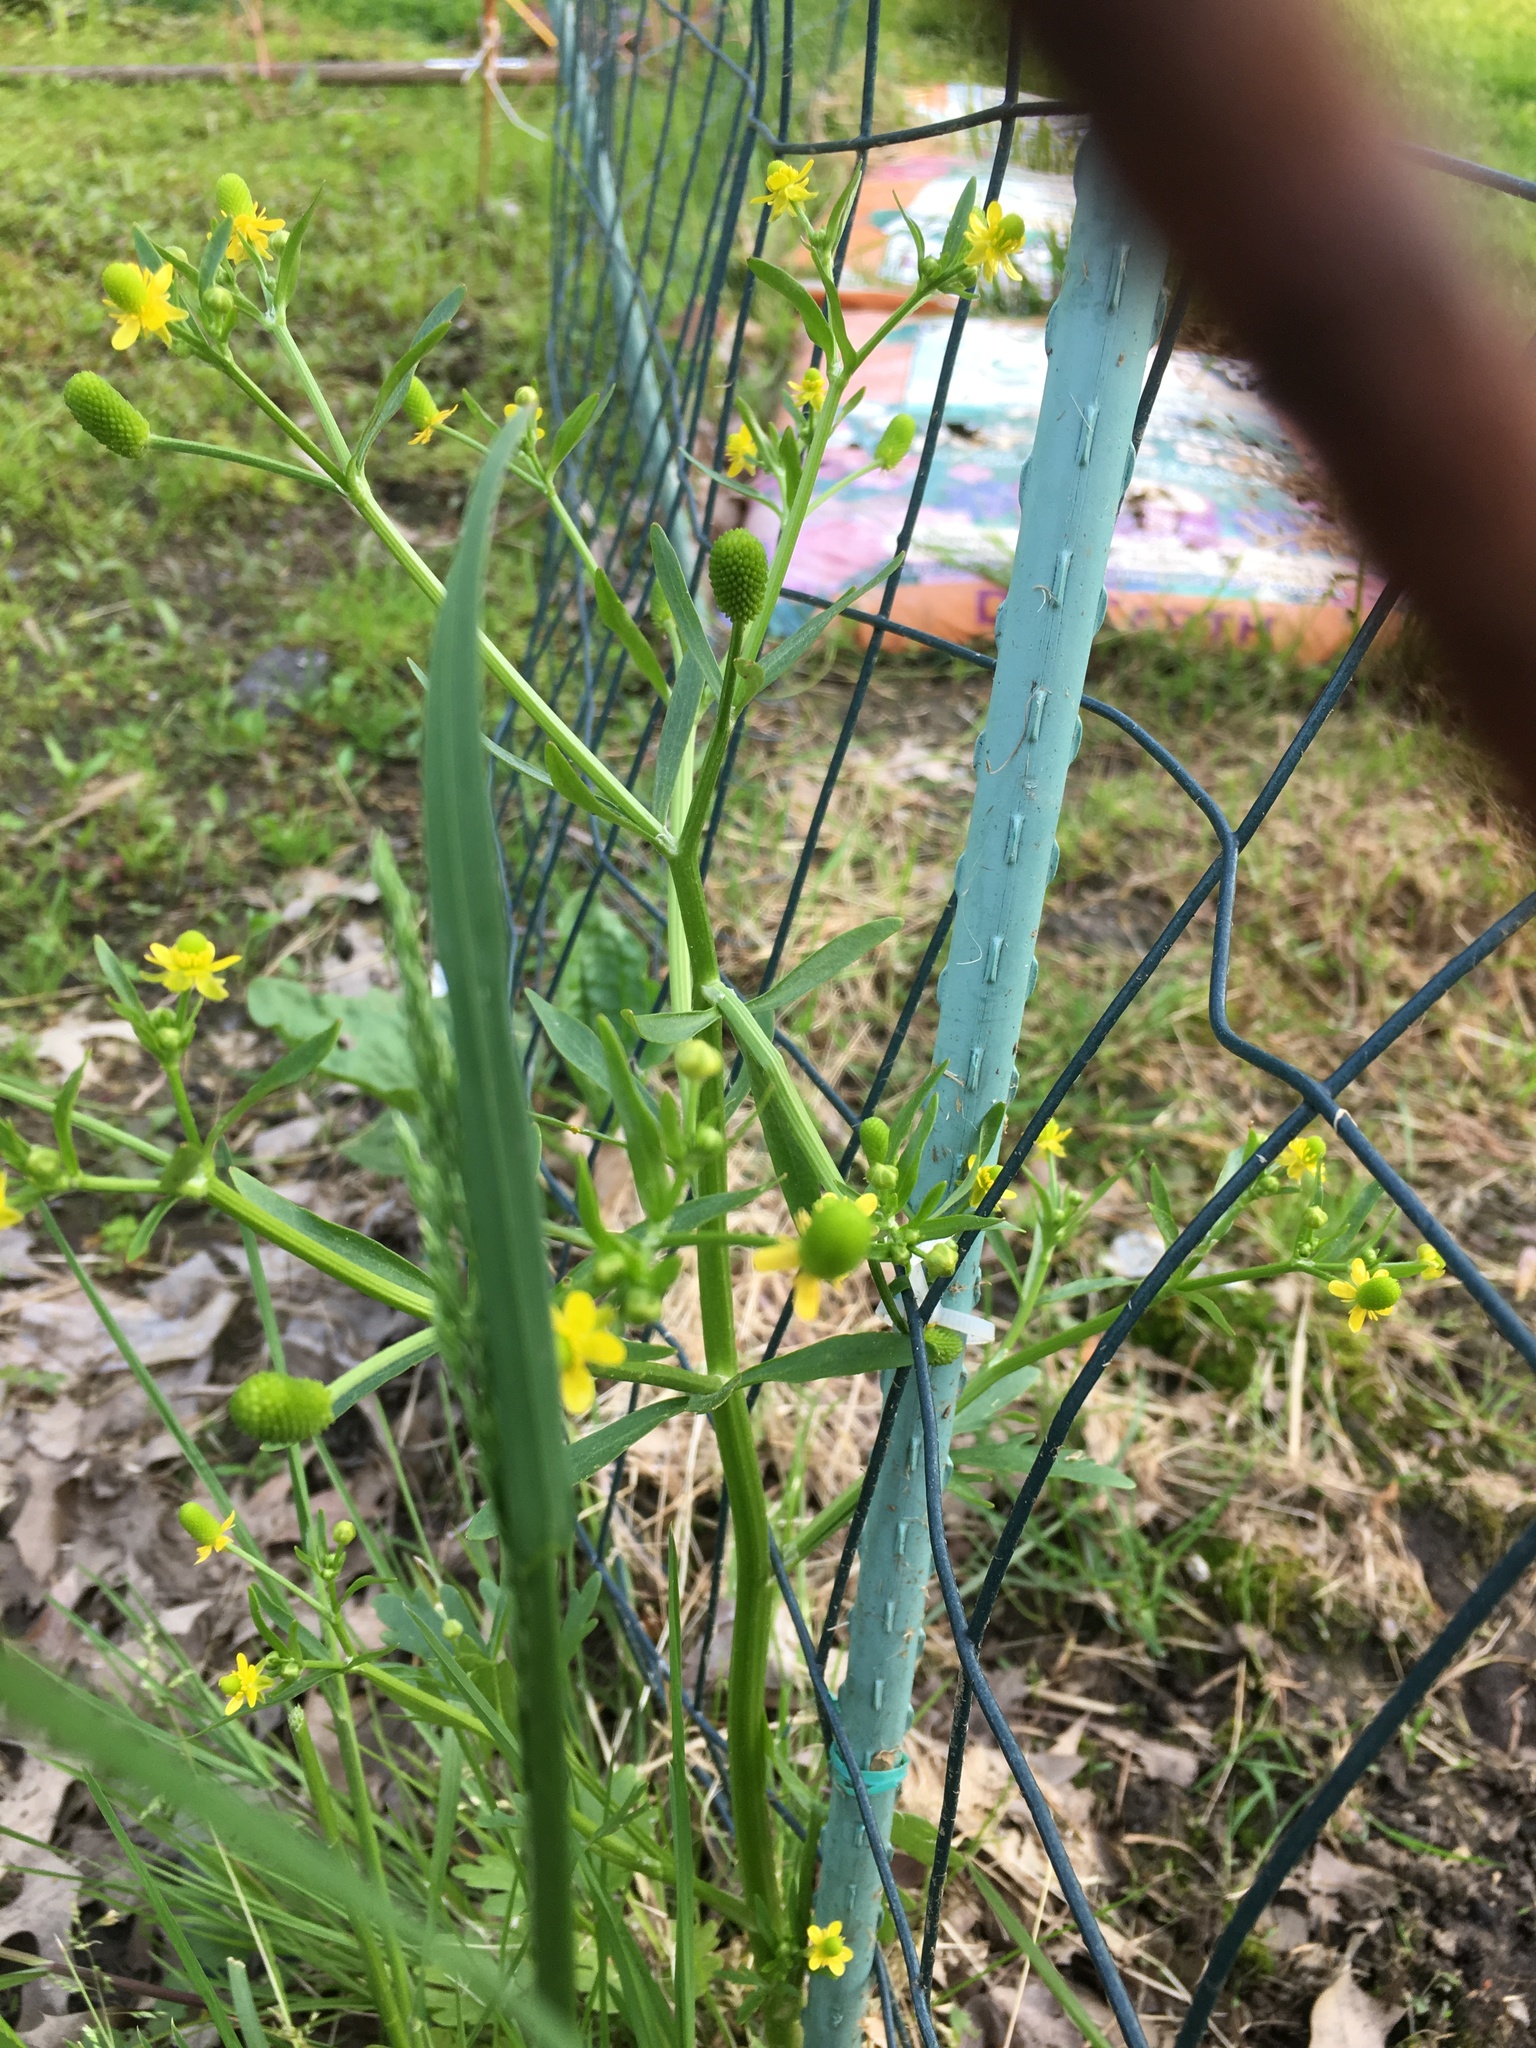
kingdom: Plantae
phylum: Tracheophyta
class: Magnoliopsida
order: Ranunculales
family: Ranunculaceae
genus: Ranunculus
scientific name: Ranunculus sceleratus
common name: Celery-leaved buttercup
